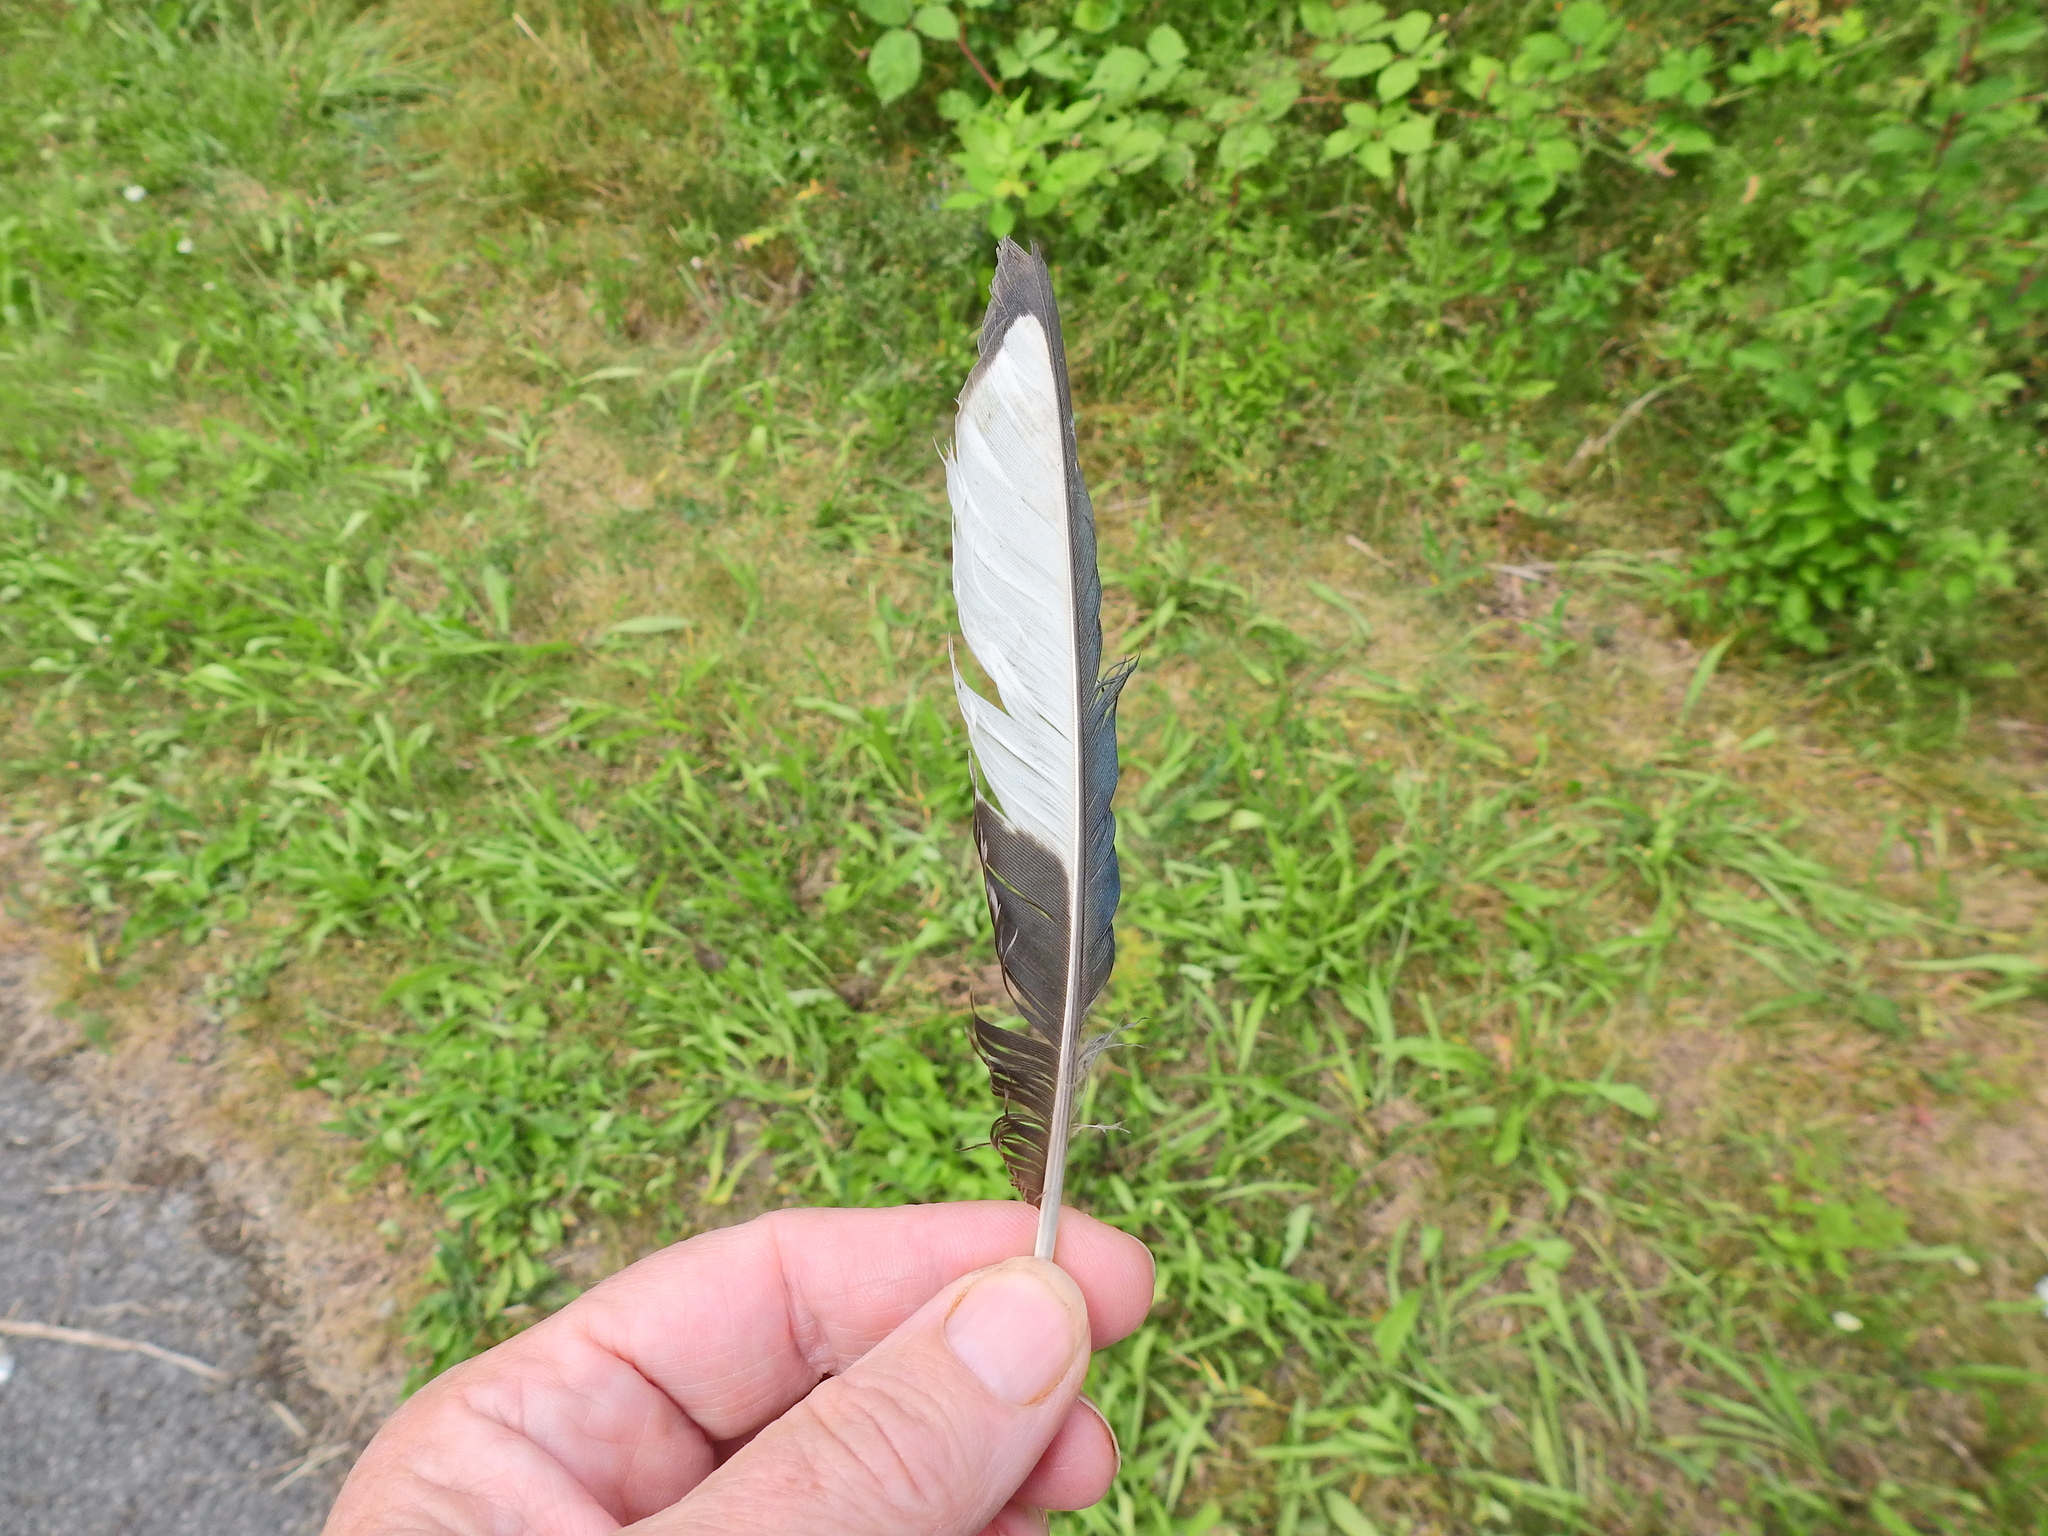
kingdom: Animalia
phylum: Chordata
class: Aves
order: Passeriformes
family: Corvidae
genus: Pica
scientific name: Pica pica
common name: Eurasian magpie
